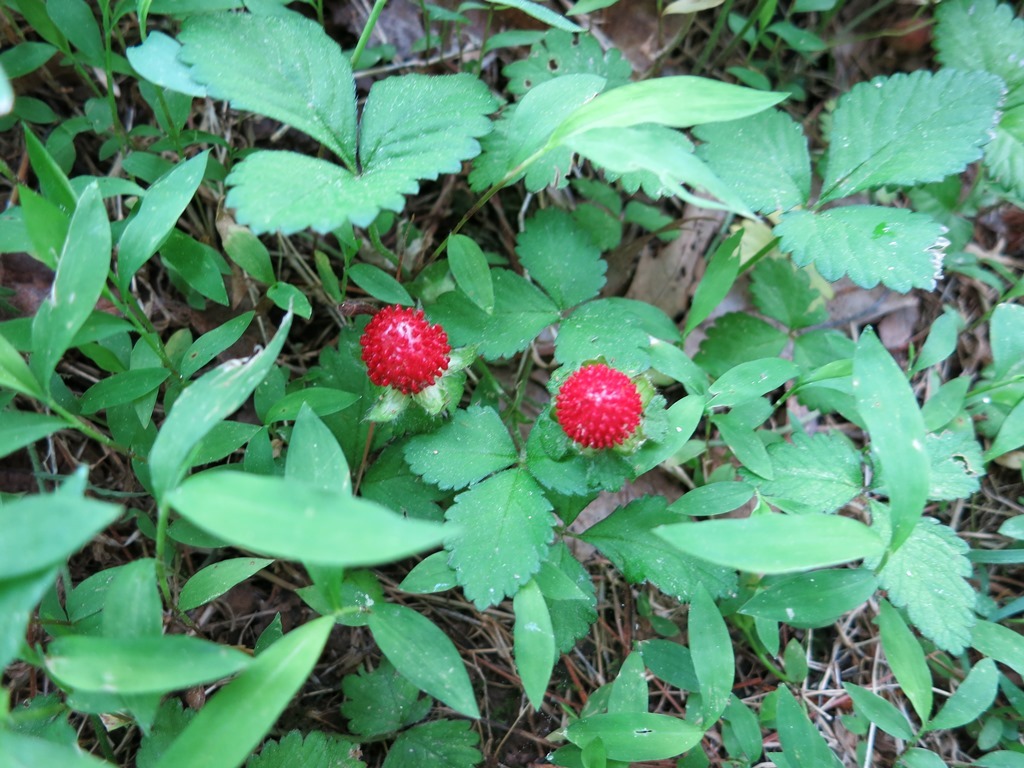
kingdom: Plantae
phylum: Tracheophyta
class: Magnoliopsida
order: Rosales
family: Rosaceae
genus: Potentilla
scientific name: Potentilla indica
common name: Yellow-flowered strawberry
